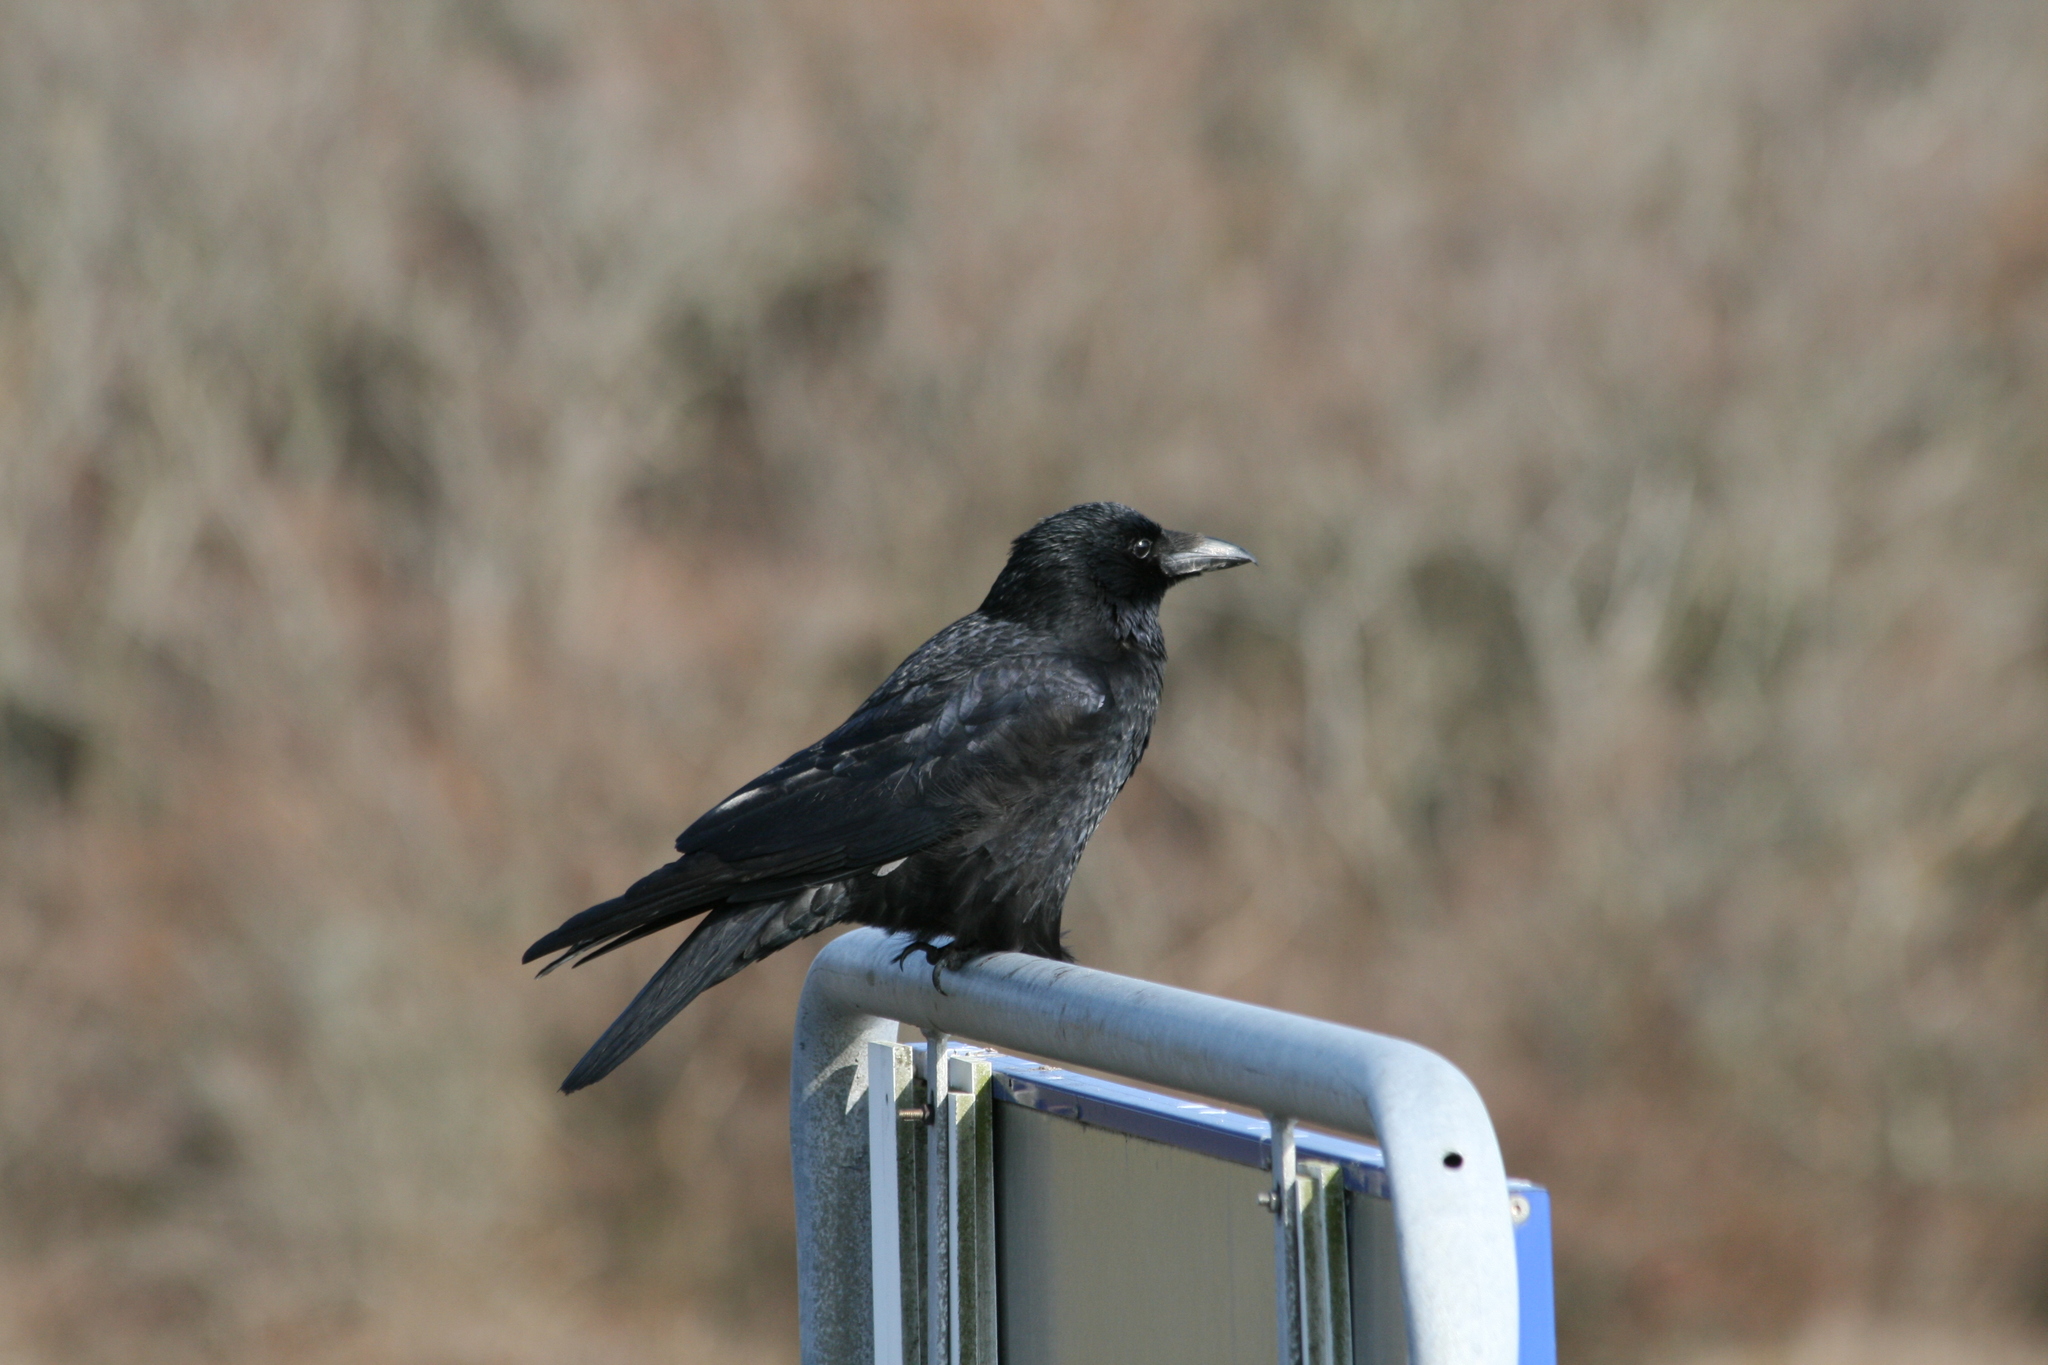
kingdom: Animalia
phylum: Chordata
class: Aves
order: Passeriformes
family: Corvidae
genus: Corvus
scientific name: Corvus corone
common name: Carrion crow
